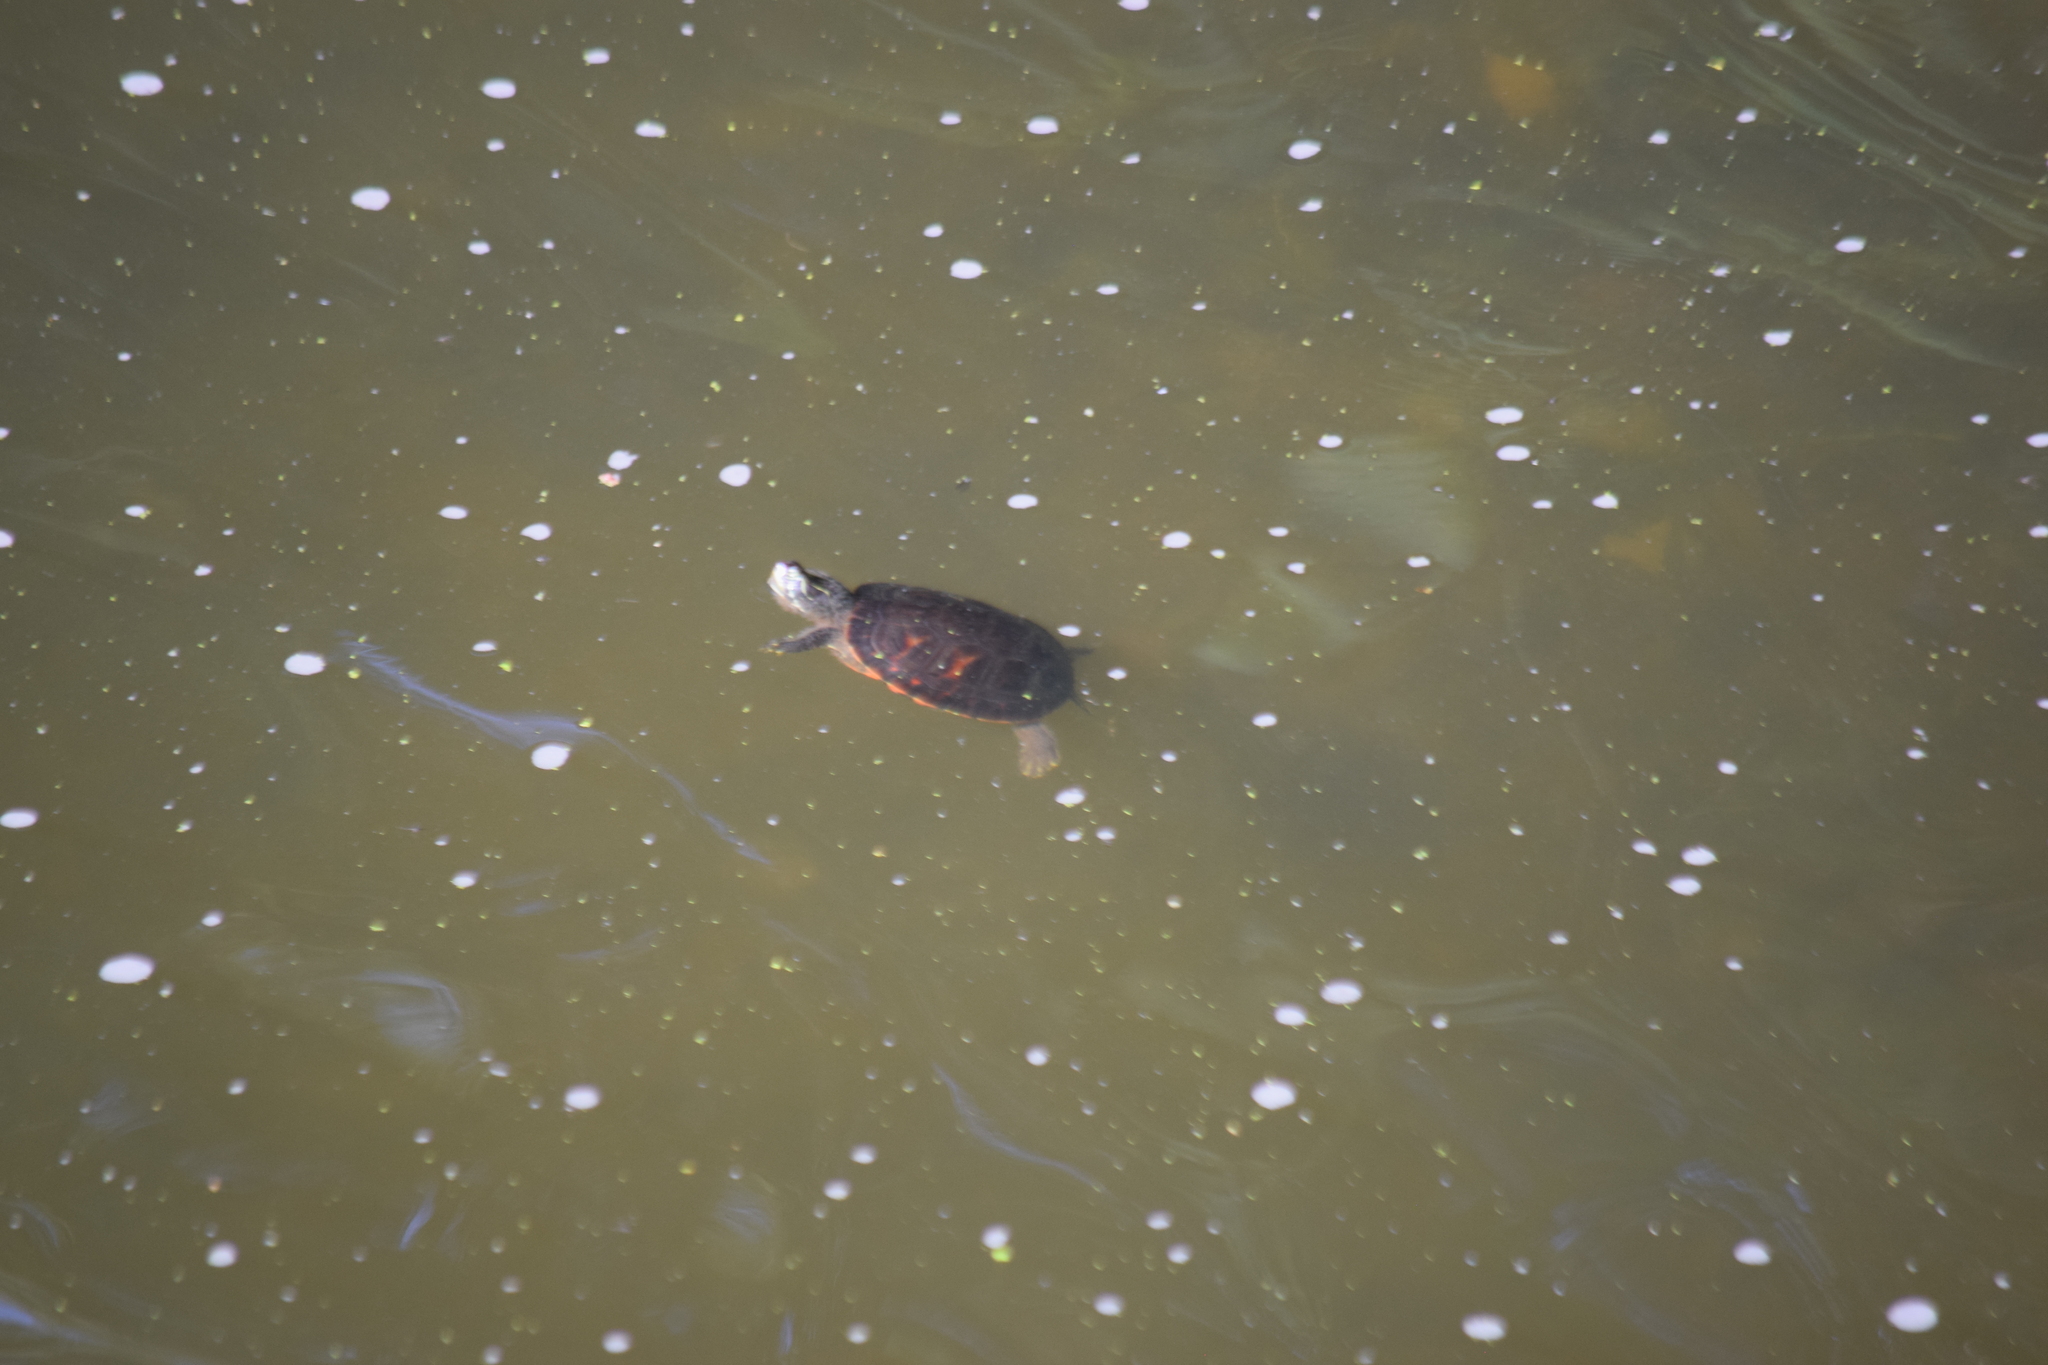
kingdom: Animalia
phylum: Chordata
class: Testudines
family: Emydidae
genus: Pseudemys
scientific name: Pseudemys rubriventris
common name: American red-bellied turtle
